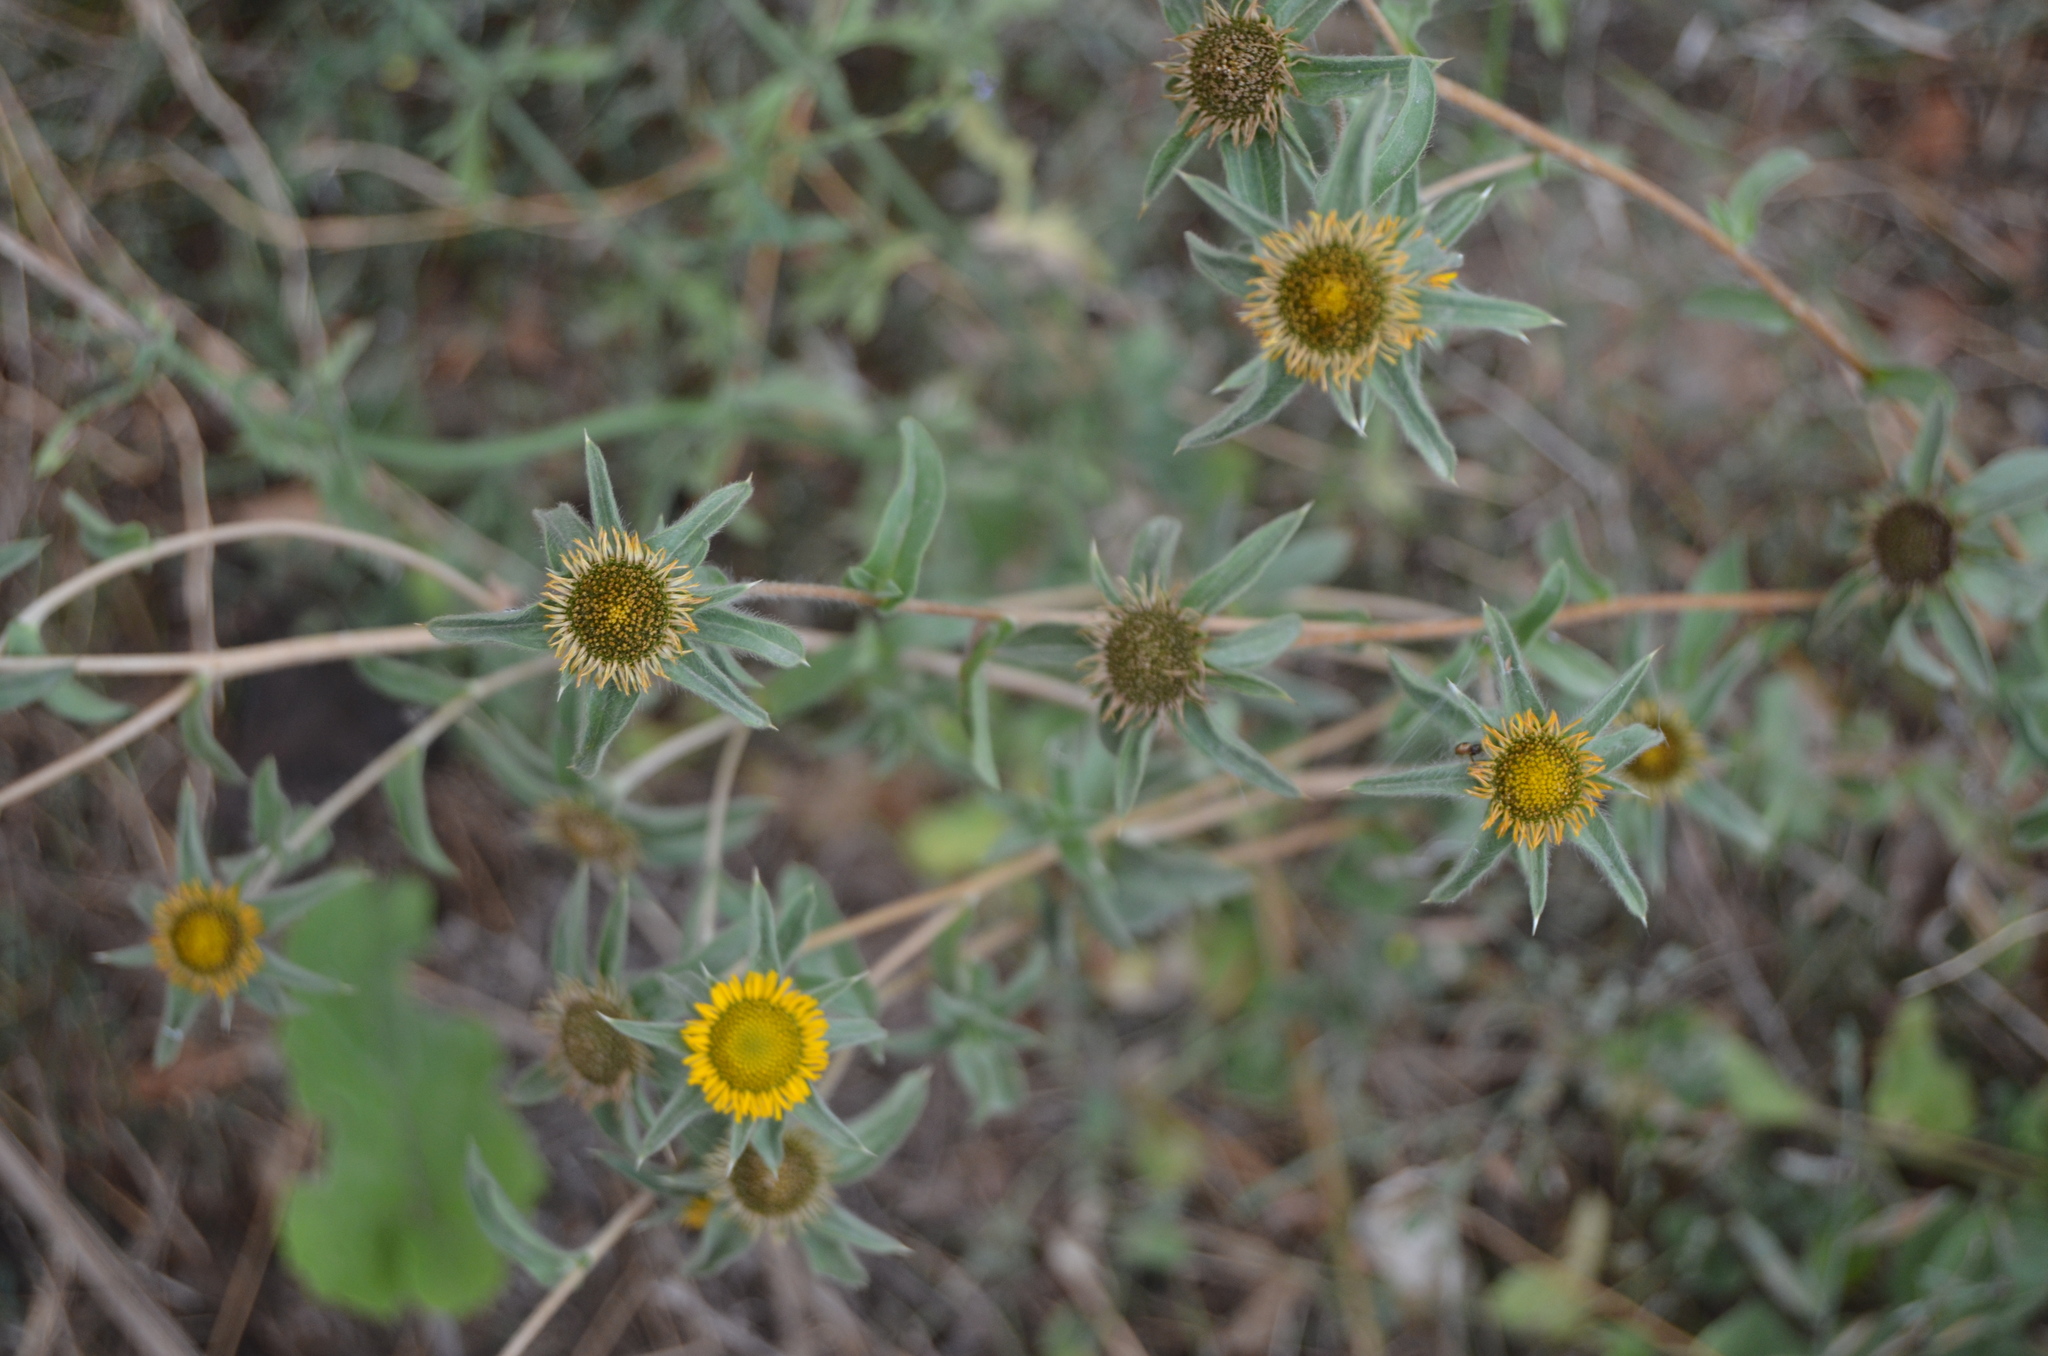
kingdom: Plantae
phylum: Tracheophyta
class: Magnoliopsida
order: Asterales
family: Asteraceae
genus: Pallenis
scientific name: Pallenis spinosa
